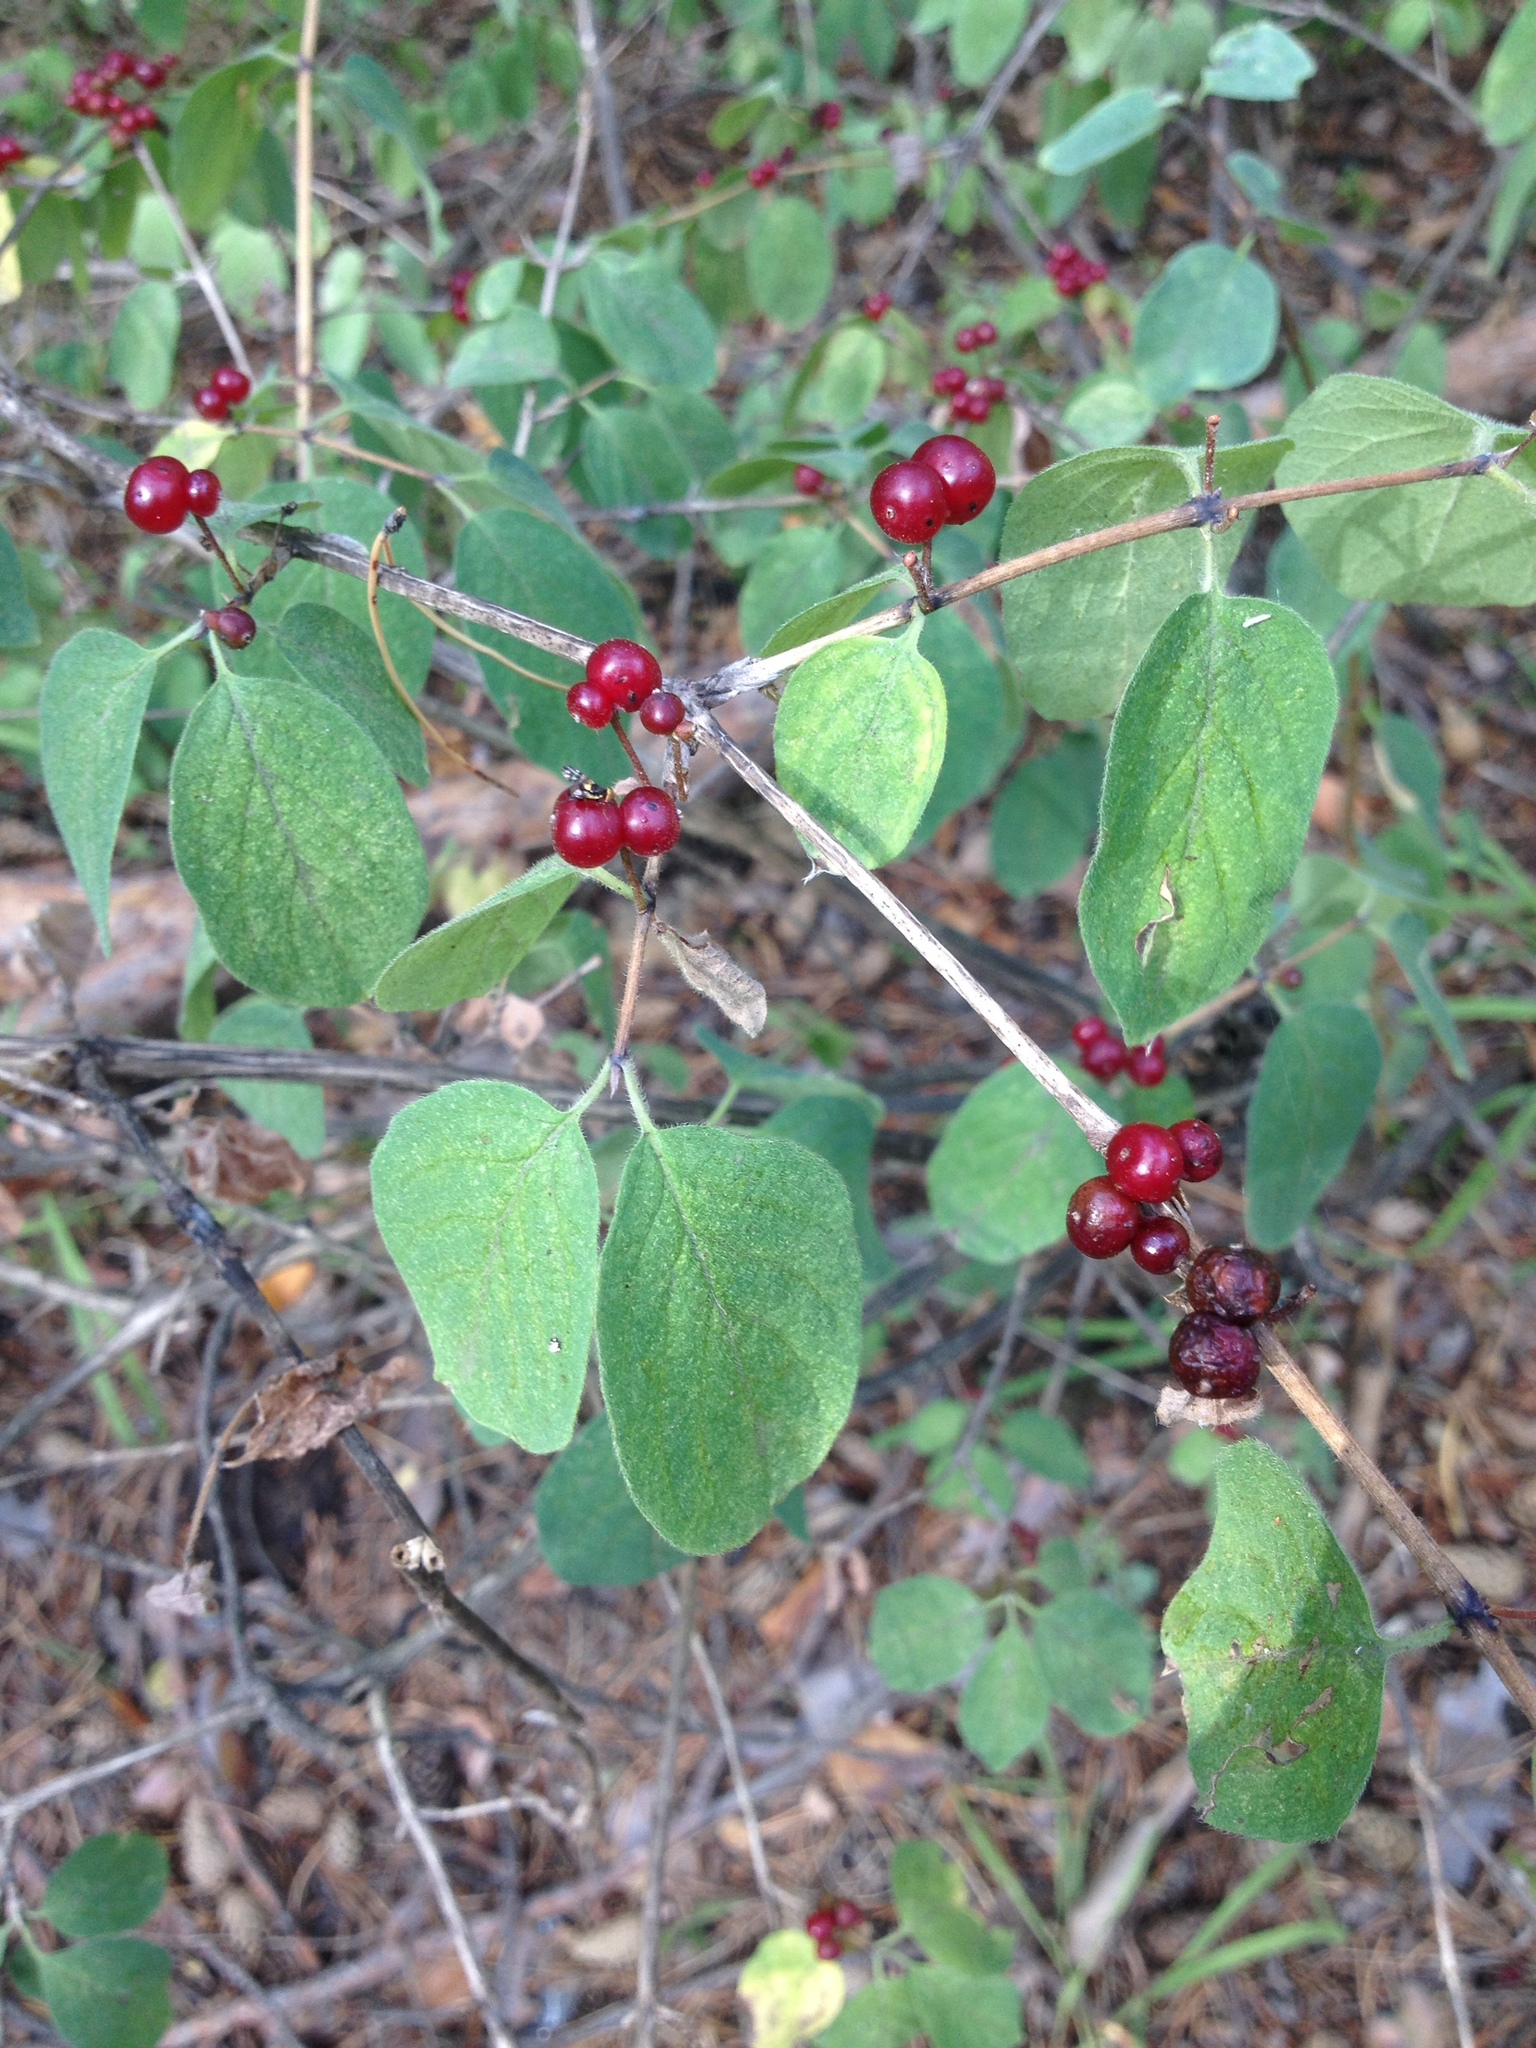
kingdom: Plantae
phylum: Tracheophyta
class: Magnoliopsida
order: Dipsacales
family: Caprifoliaceae
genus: Lonicera
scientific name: Lonicera xylosteum
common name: Fly honeysuckle
